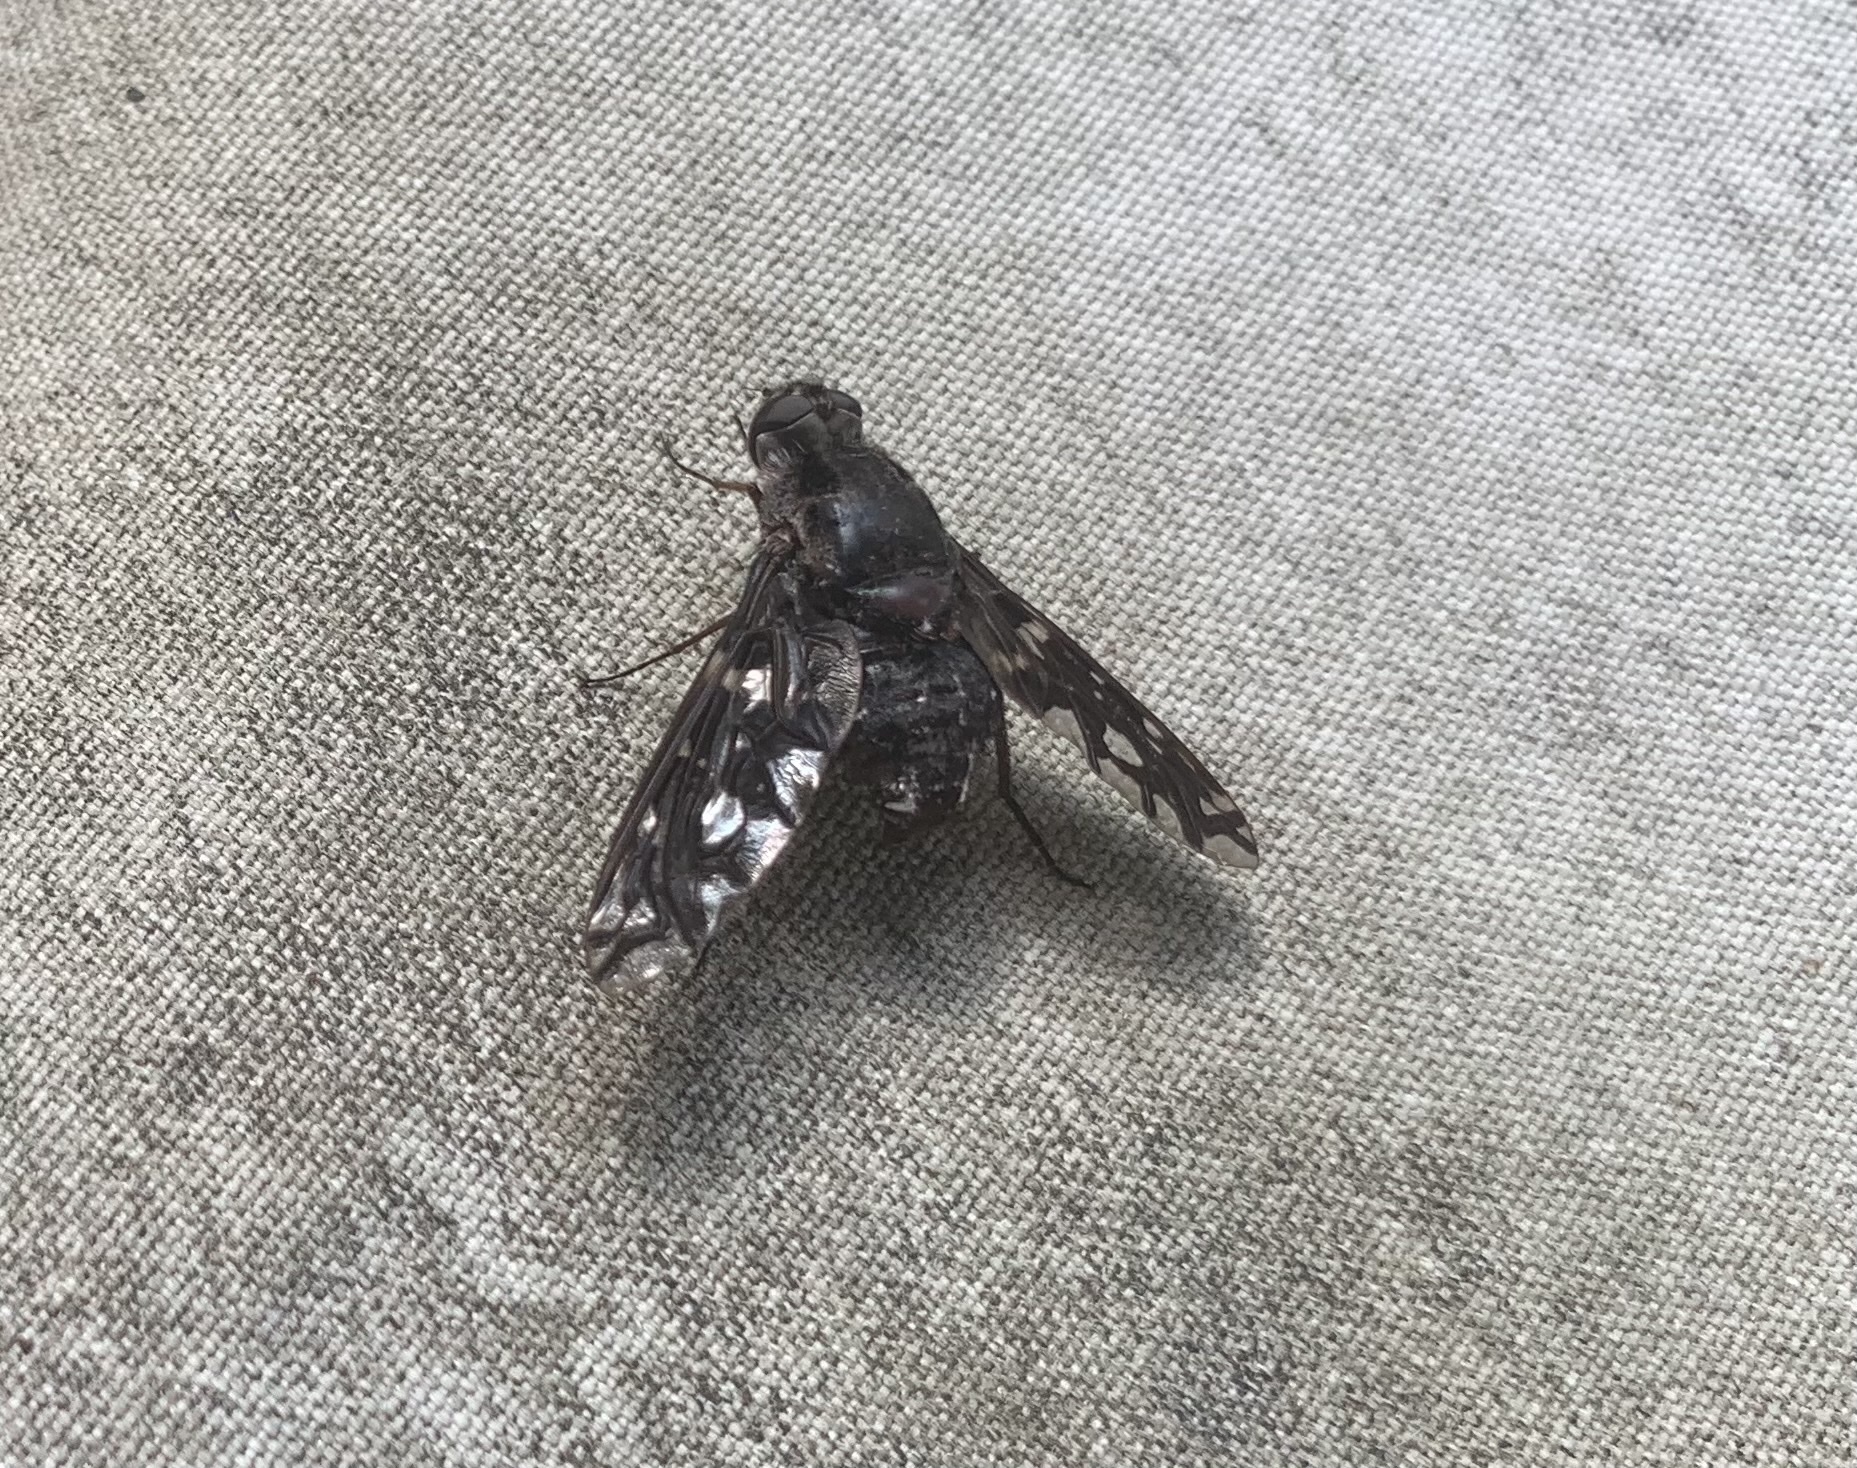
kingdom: Animalia
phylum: Arthropoda
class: Insecta
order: Diptera
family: Bombyliidae
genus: Xenox
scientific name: Xenox tigrinus
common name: Tiger bee fly
